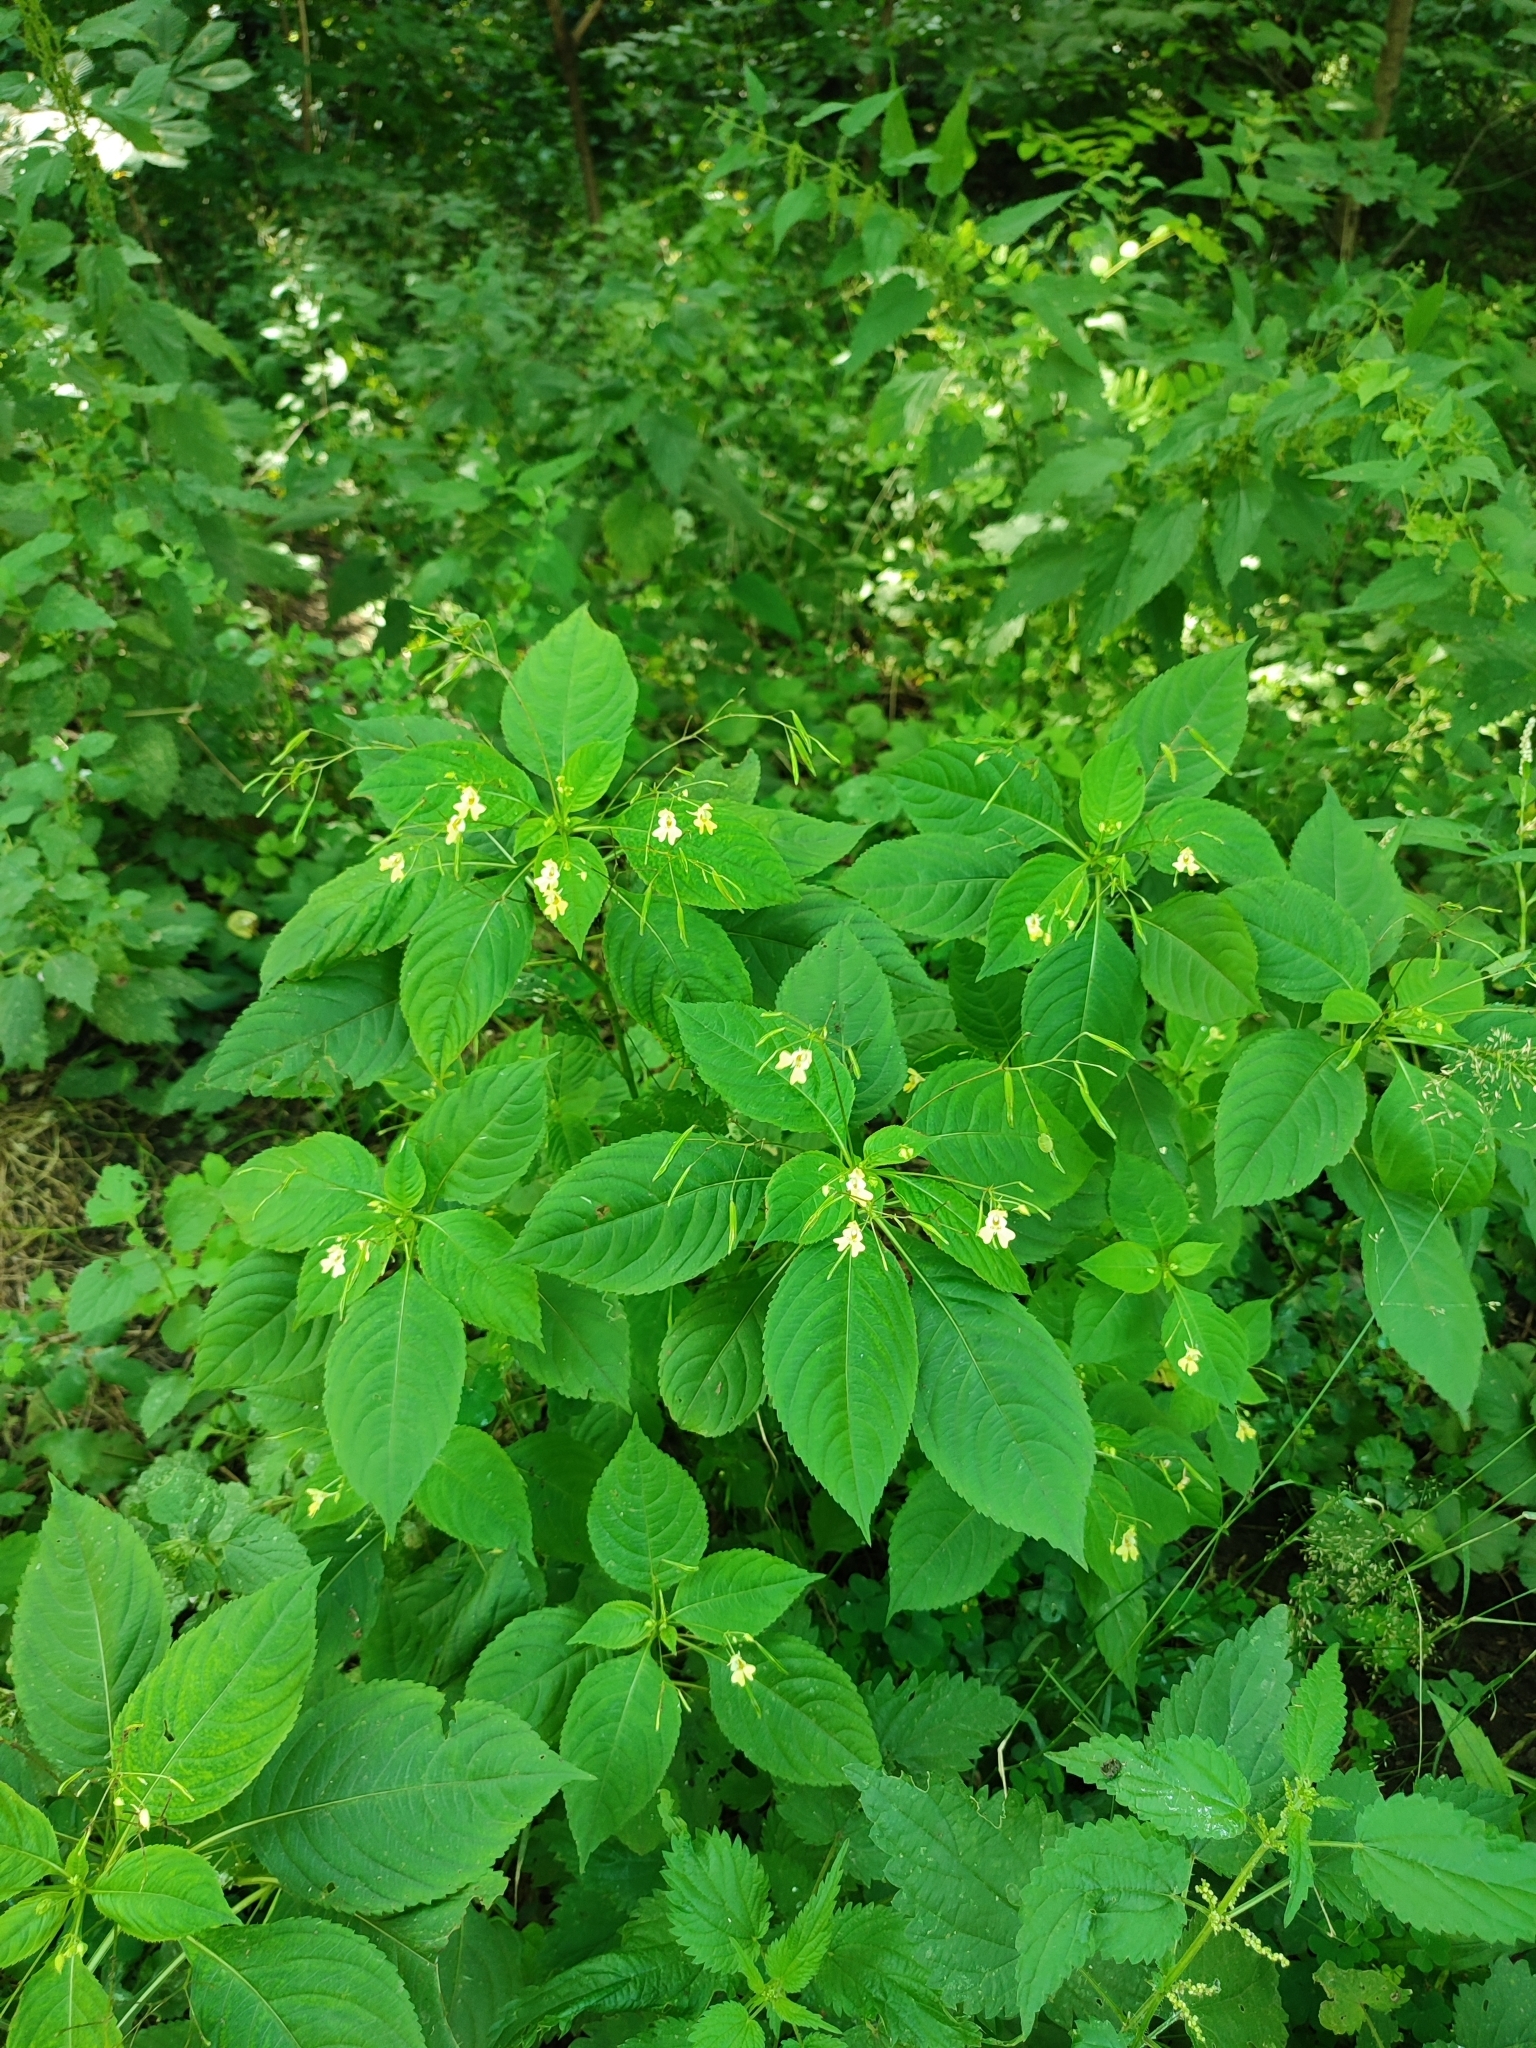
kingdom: Plantae
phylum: Tracheophyta
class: Magnoliopsida
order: Ericales
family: Balsaminaceae
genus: Impatiens
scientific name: Impatiens parviflora
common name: Small balsam
